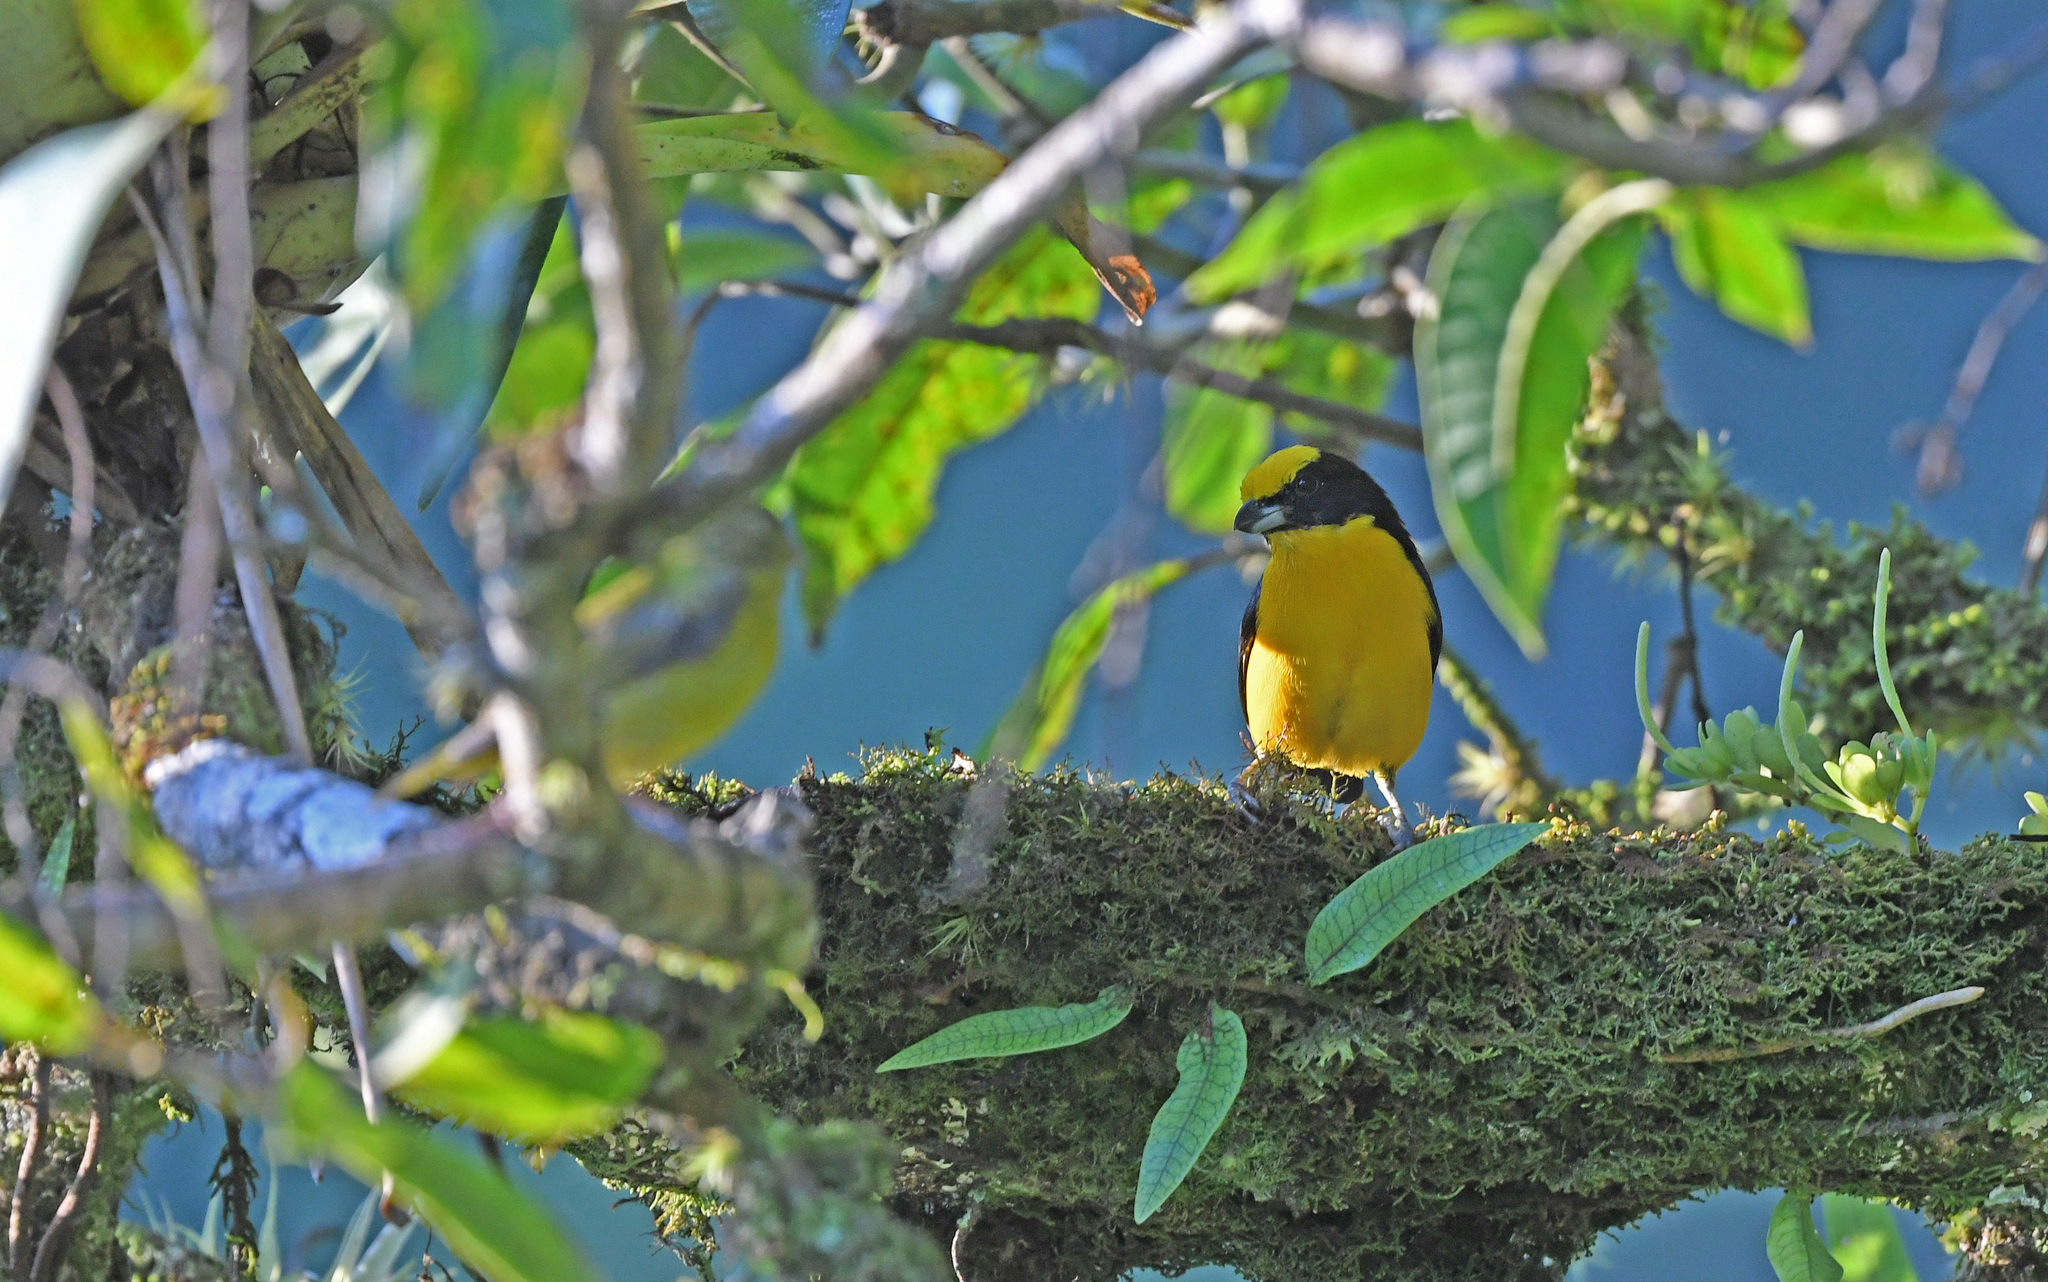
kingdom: Animalia
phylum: Chordata
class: Aves
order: Passeriformes
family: Fringillidae
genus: Euphonia
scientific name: Euphonia laniirostris
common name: Thick-billed euphonia
